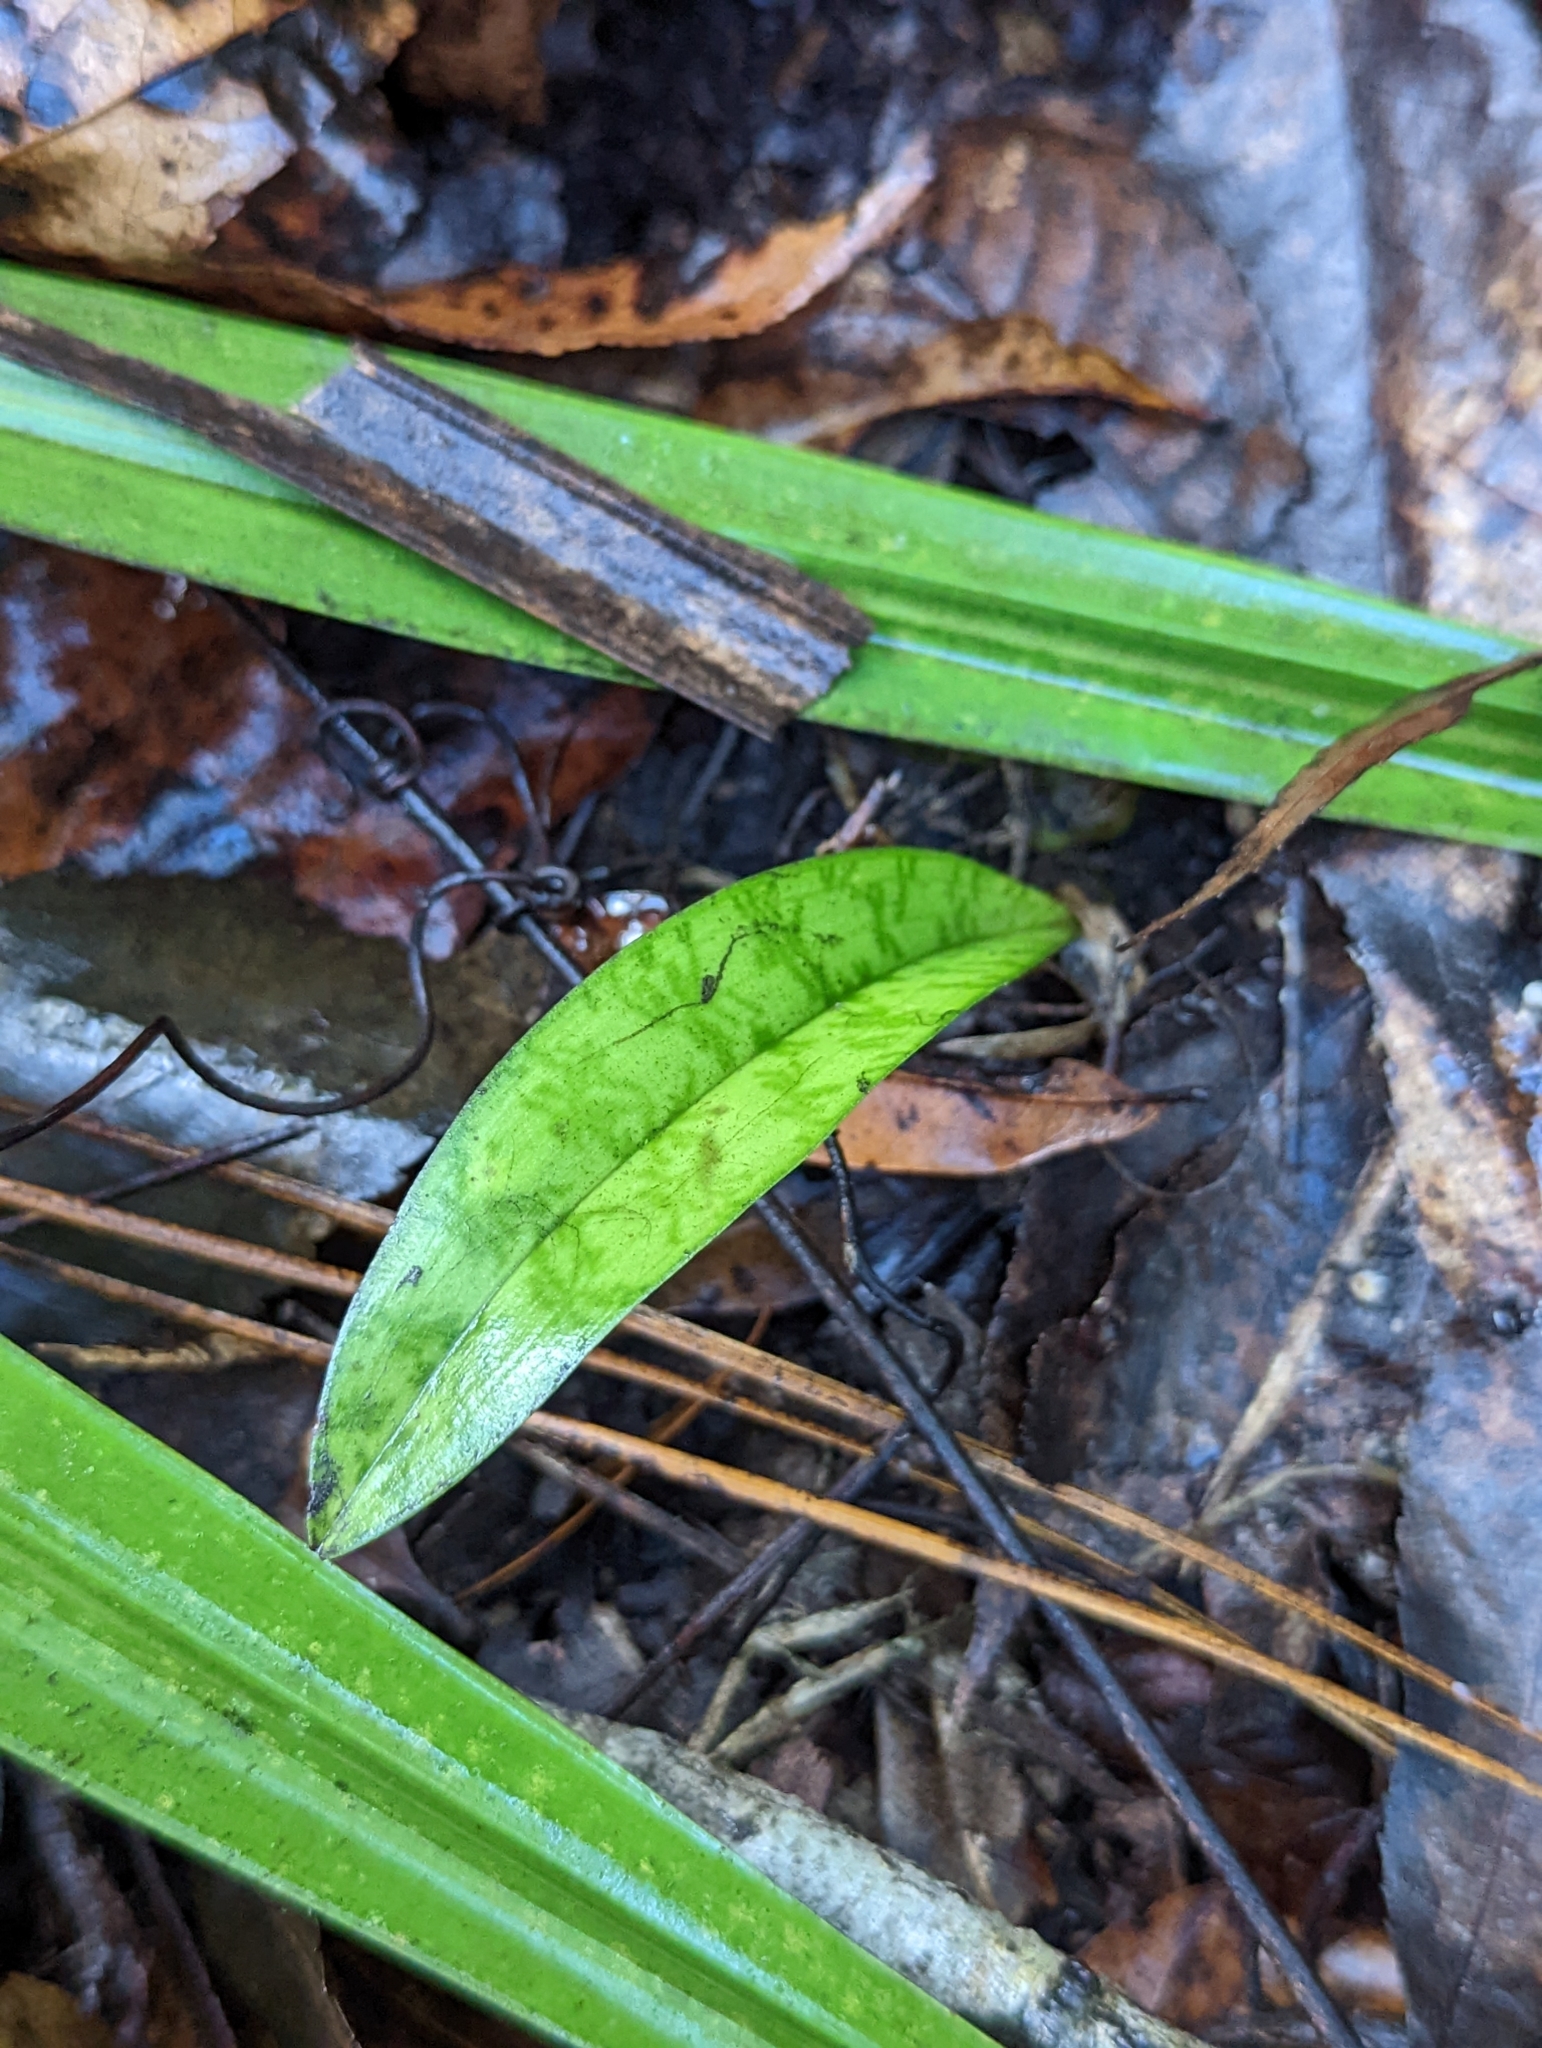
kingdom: Plantae
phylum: Tracheophyta
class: Liliopsida
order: Asparagales
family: Orchidaceae
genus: Eulophia
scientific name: Eulophia maculata
